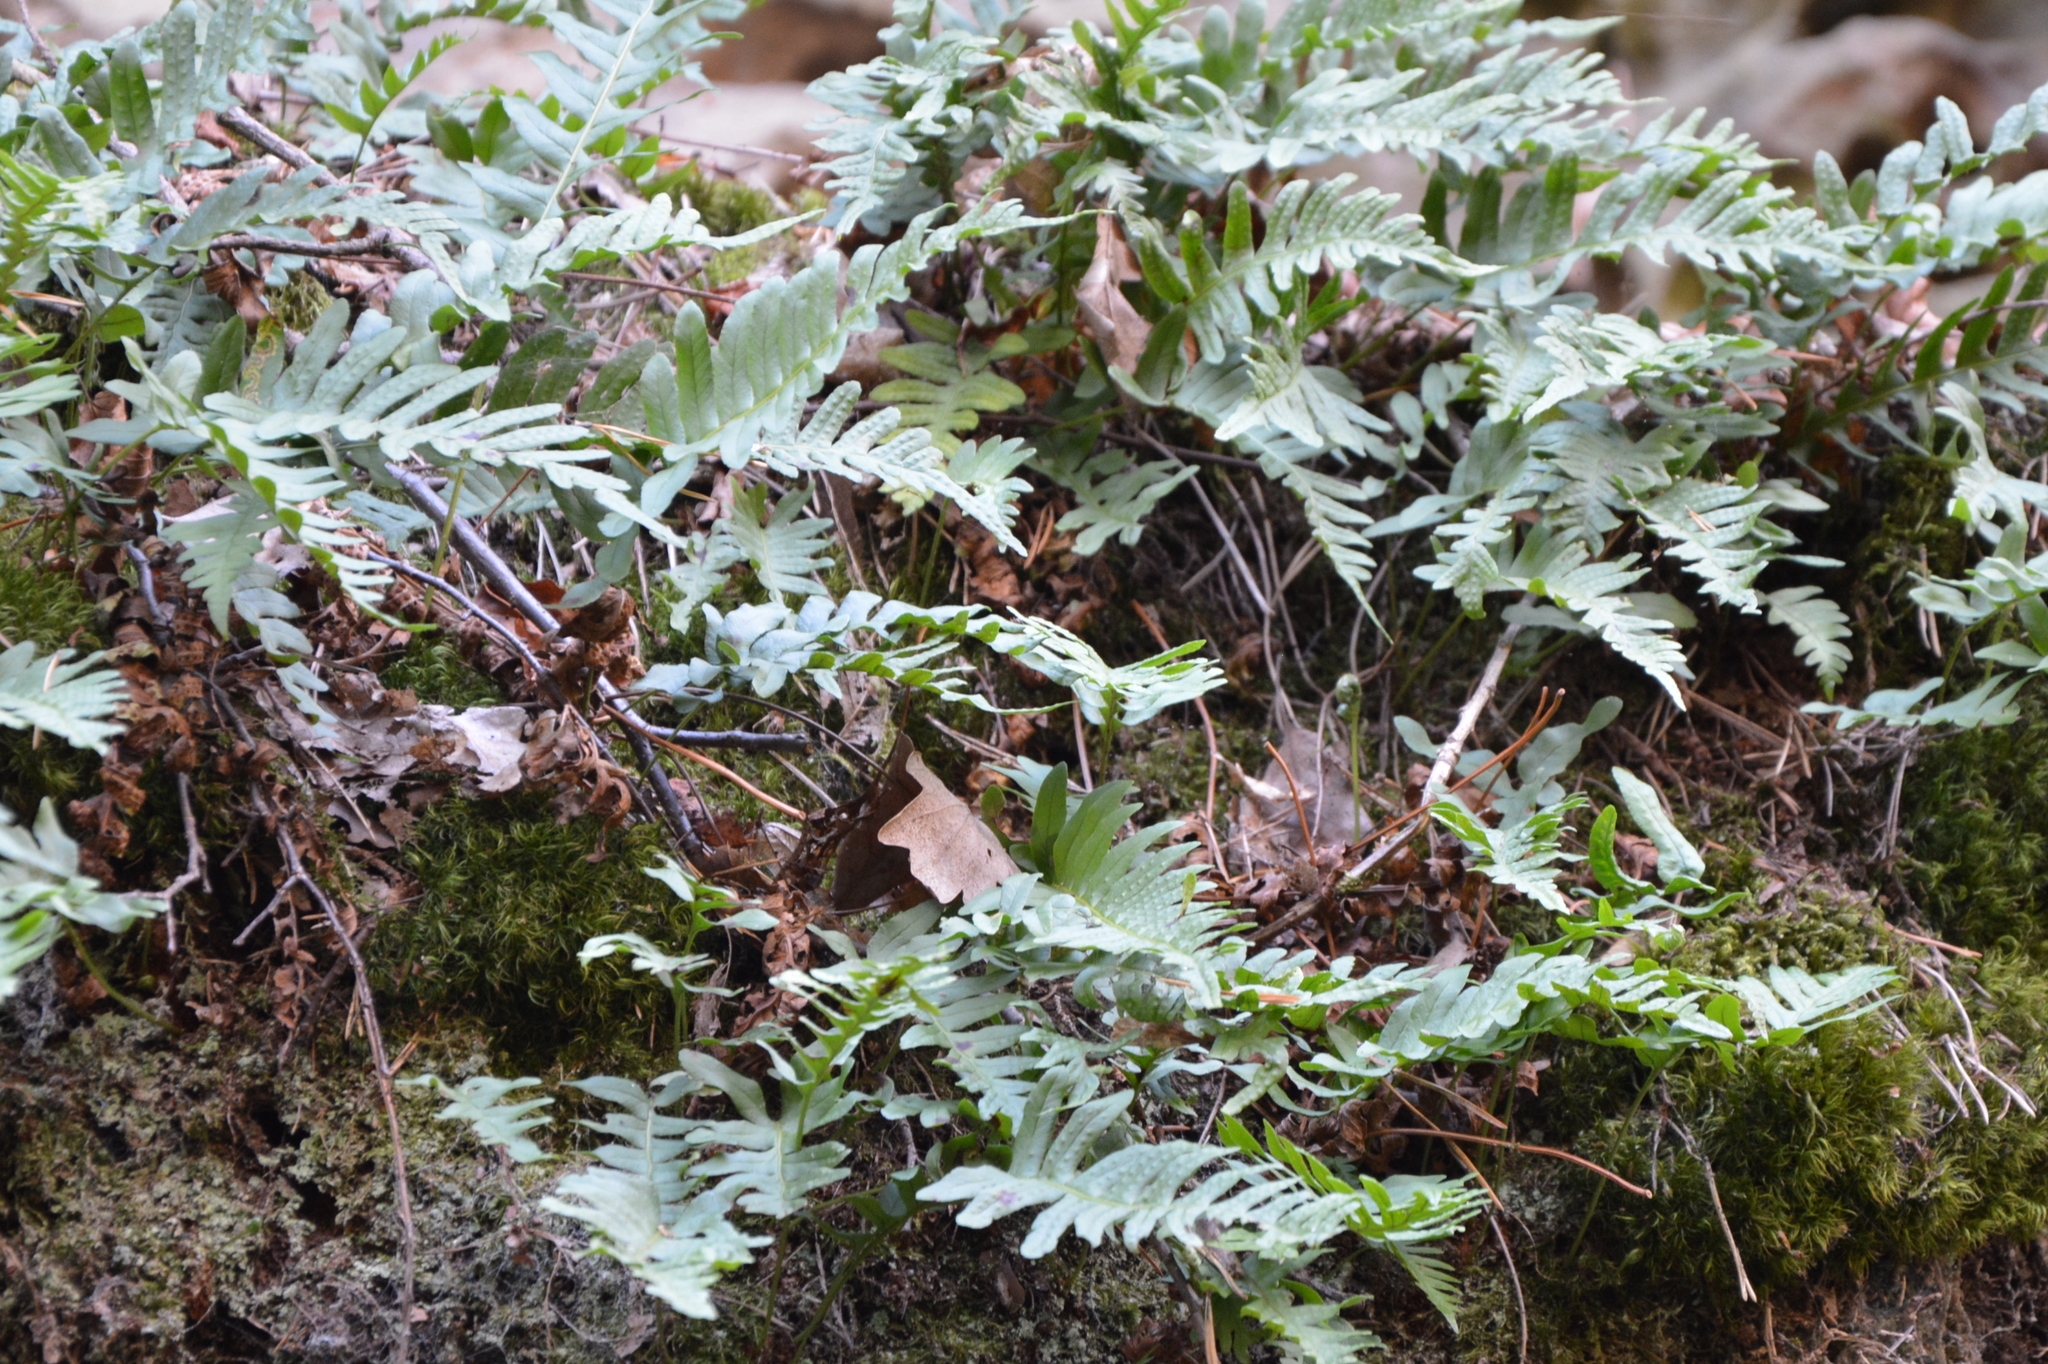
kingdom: Plantae
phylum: Tracheophyta
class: Polypodiopsida
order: Polypodiales
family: Polypodiaceae
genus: Polypodium
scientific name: Polypodium vulgare
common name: Common polypody
